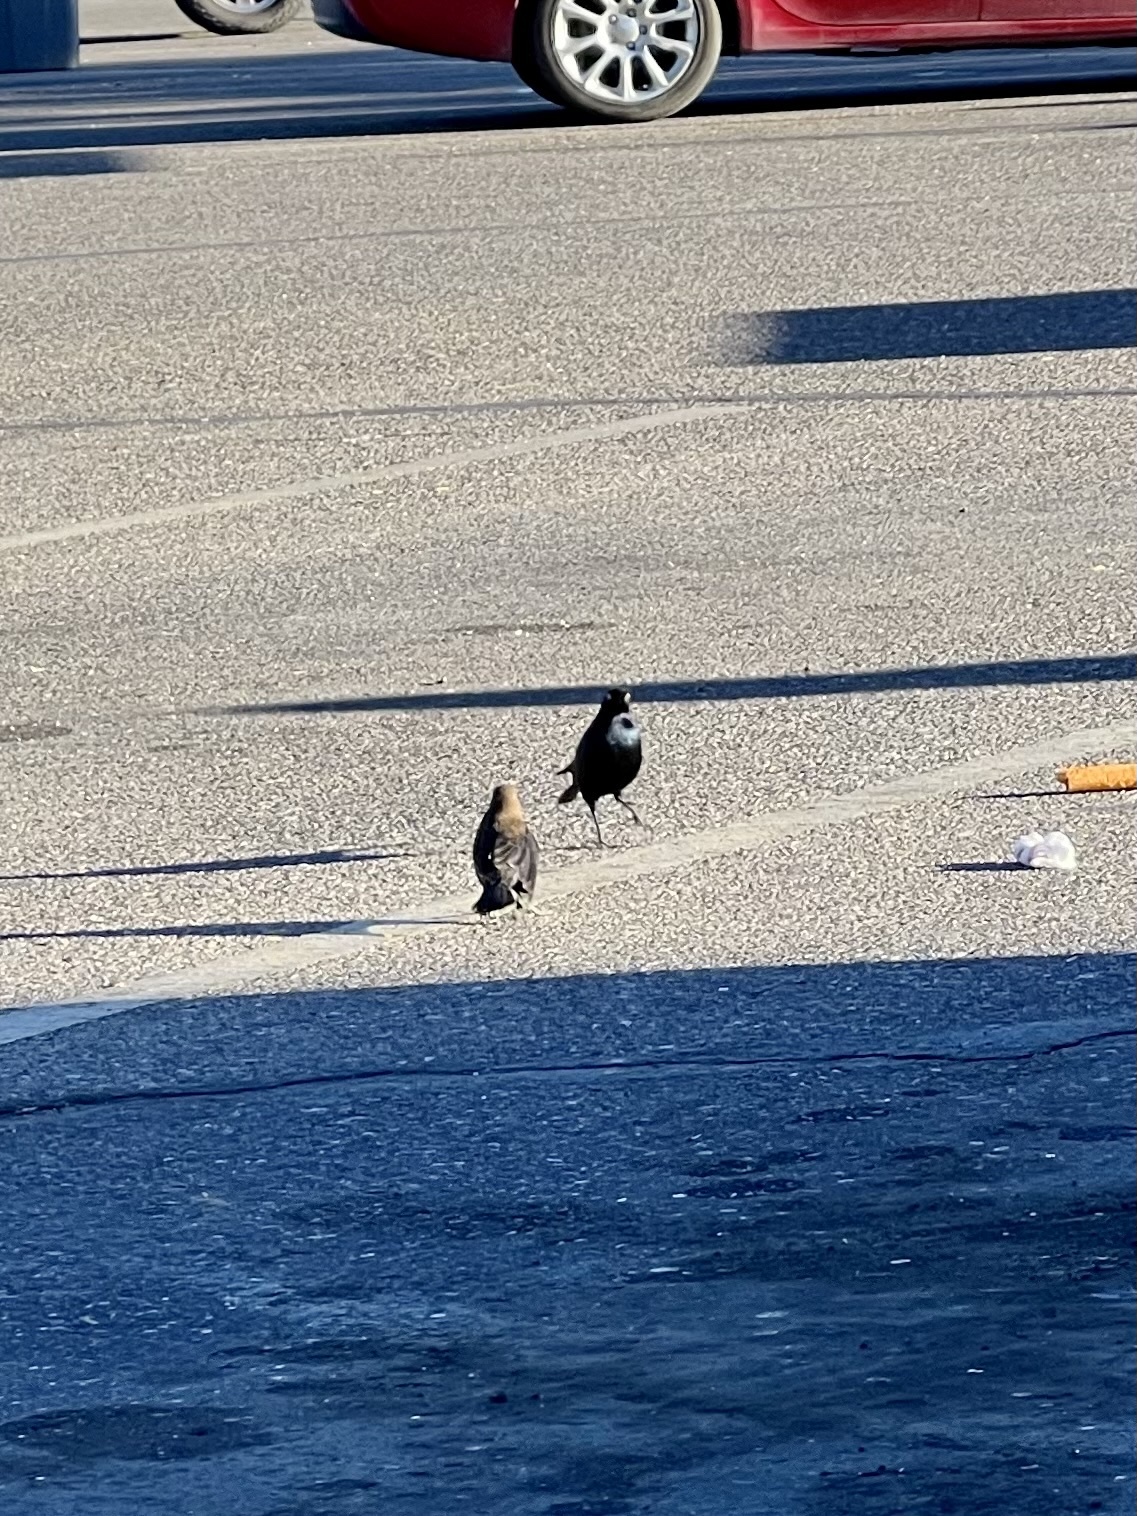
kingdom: Animalia
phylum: Chordata
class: Aves
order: Passeriformes
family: Icteridae
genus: Euphagus
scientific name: Euphagus cyanocephalus
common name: Brewer's blackbird
